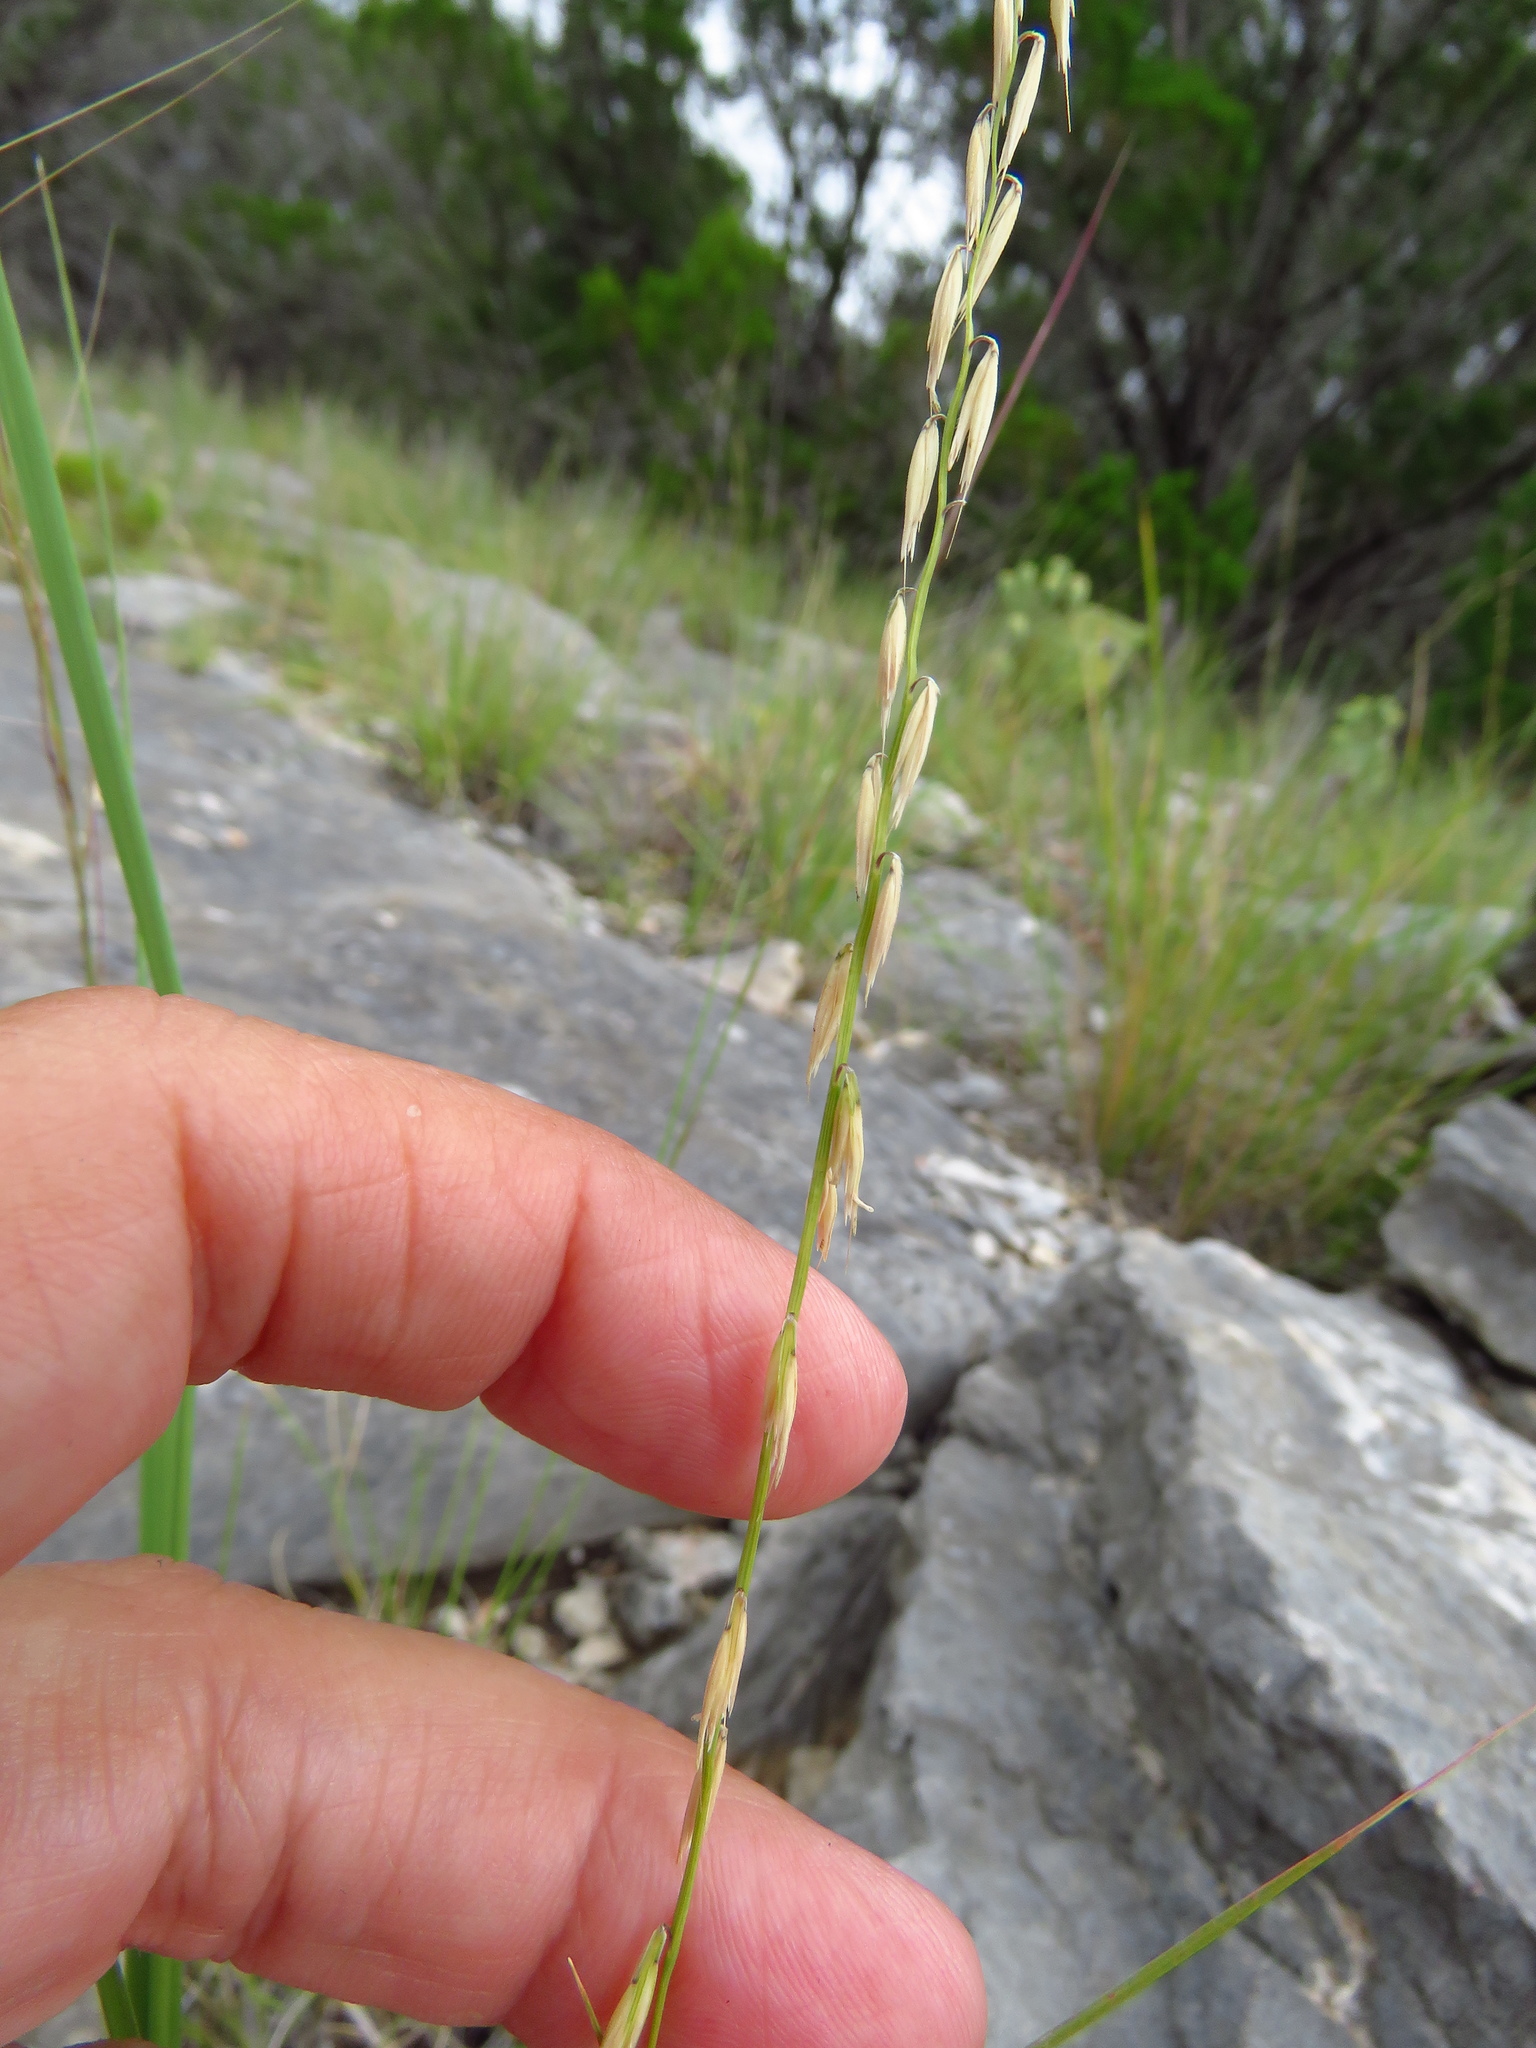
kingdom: Plantae
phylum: Tracheophyta
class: Liliopsida
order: Poales
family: Poaceae
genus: Bouteloua
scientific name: Bouteloua curtipendula
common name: Side-oats grama
